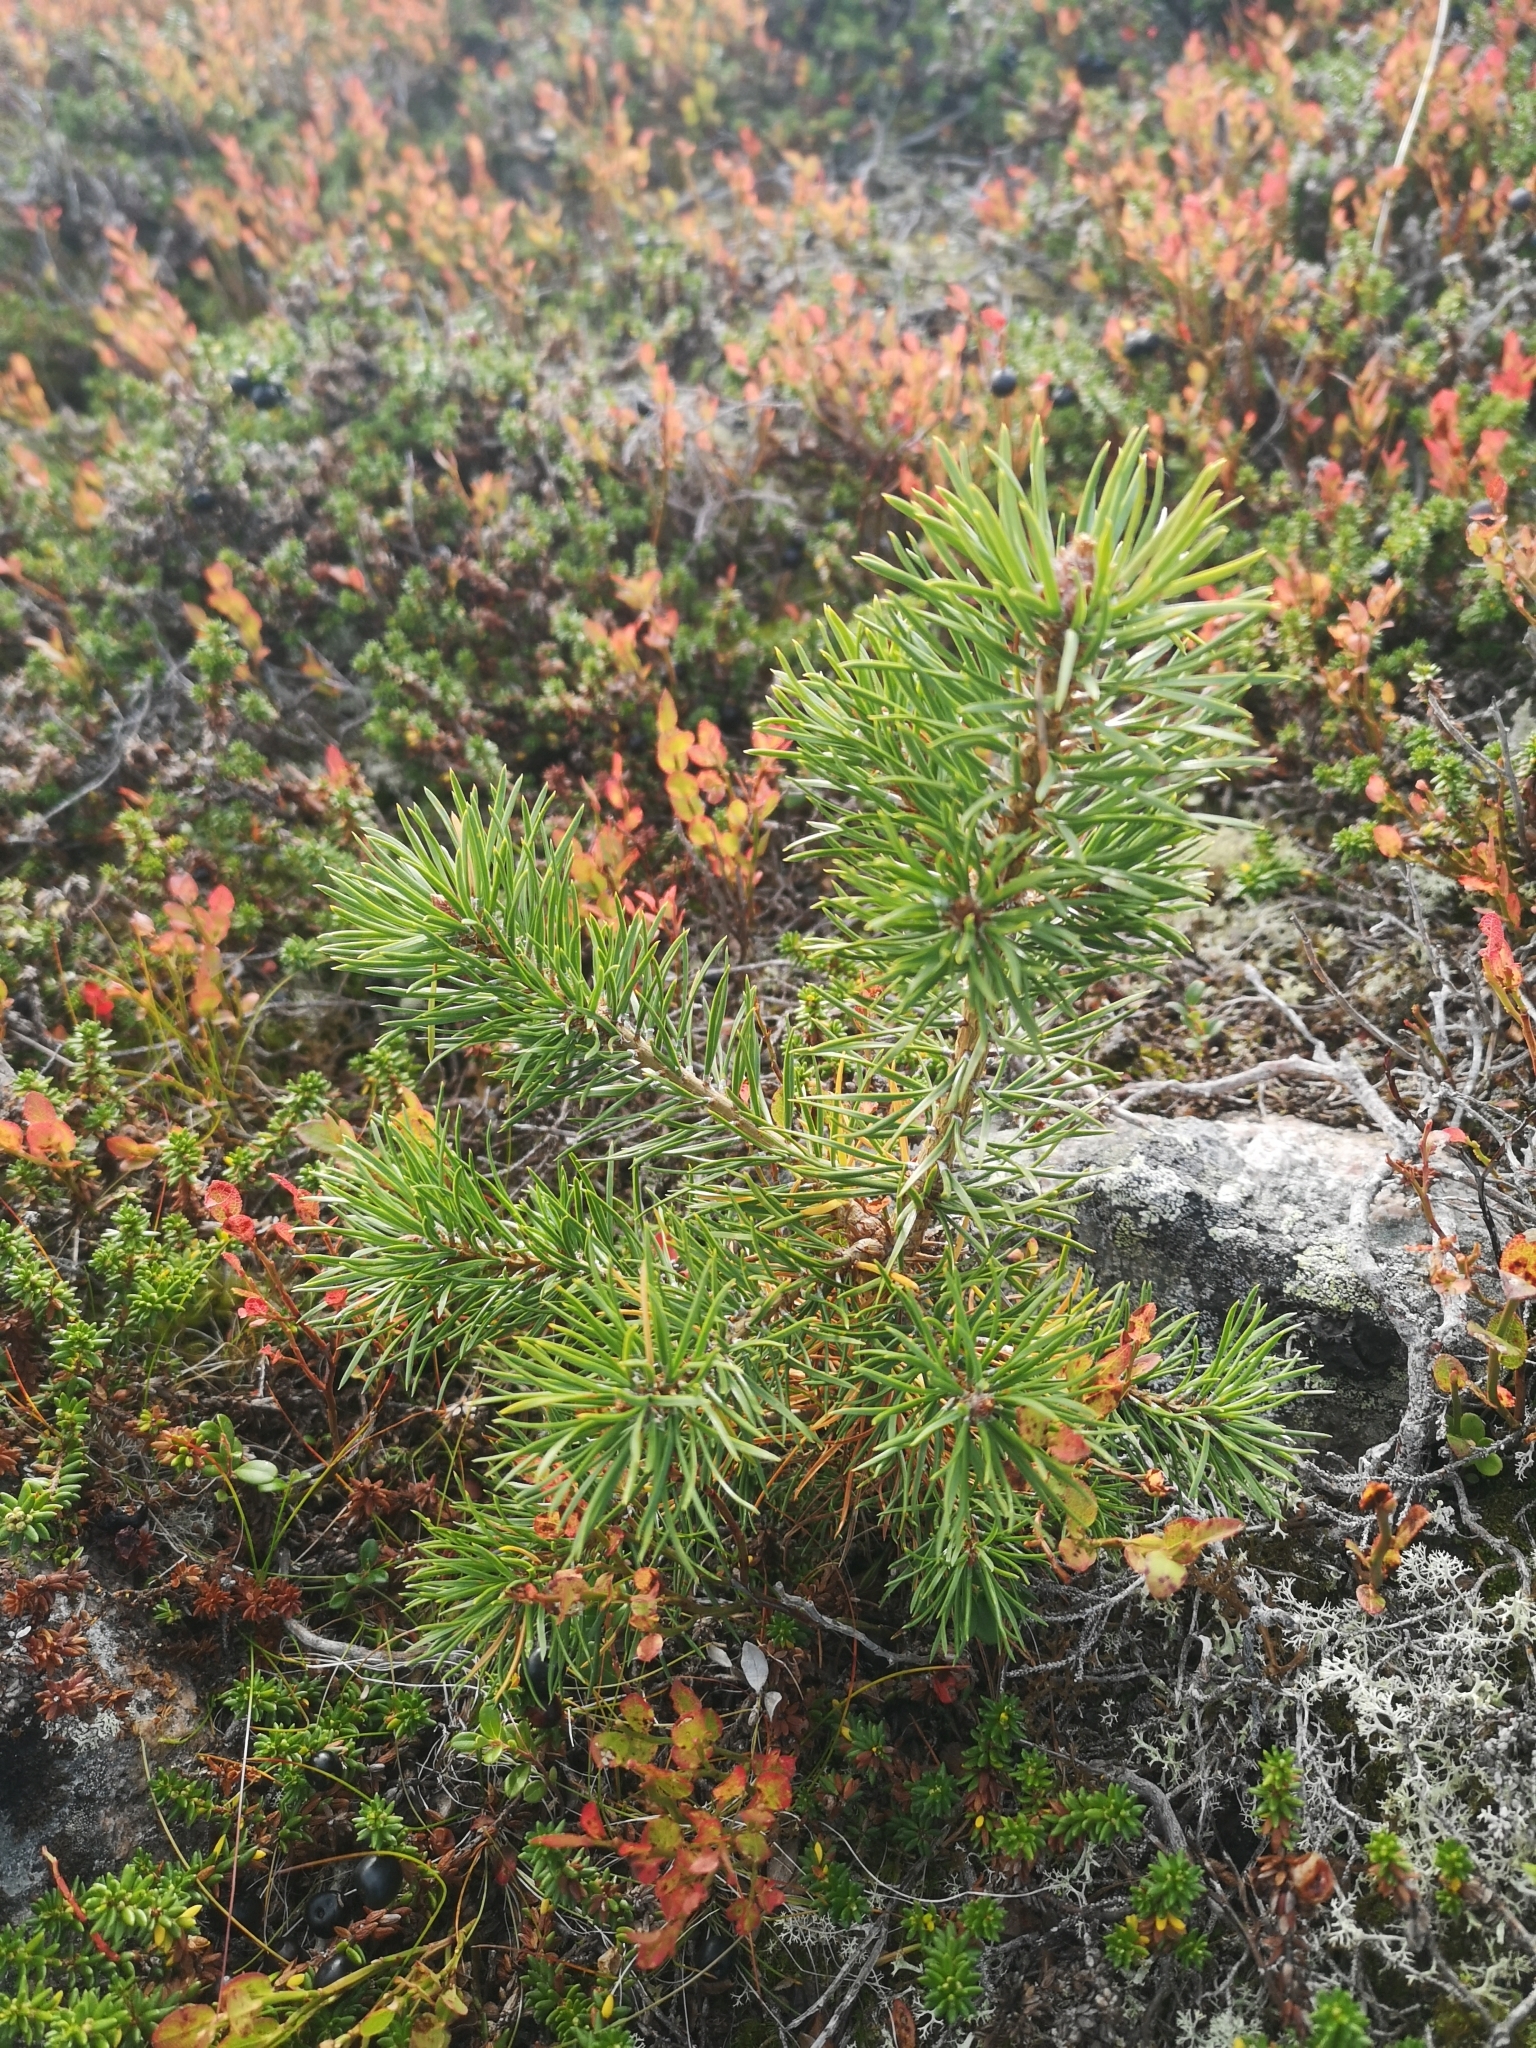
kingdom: Plantae
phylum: Tracheophyta
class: Pinopsida
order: Pinales
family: Pinaceae
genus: Pinus
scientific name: Pinus sylvestris
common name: Scots pine
